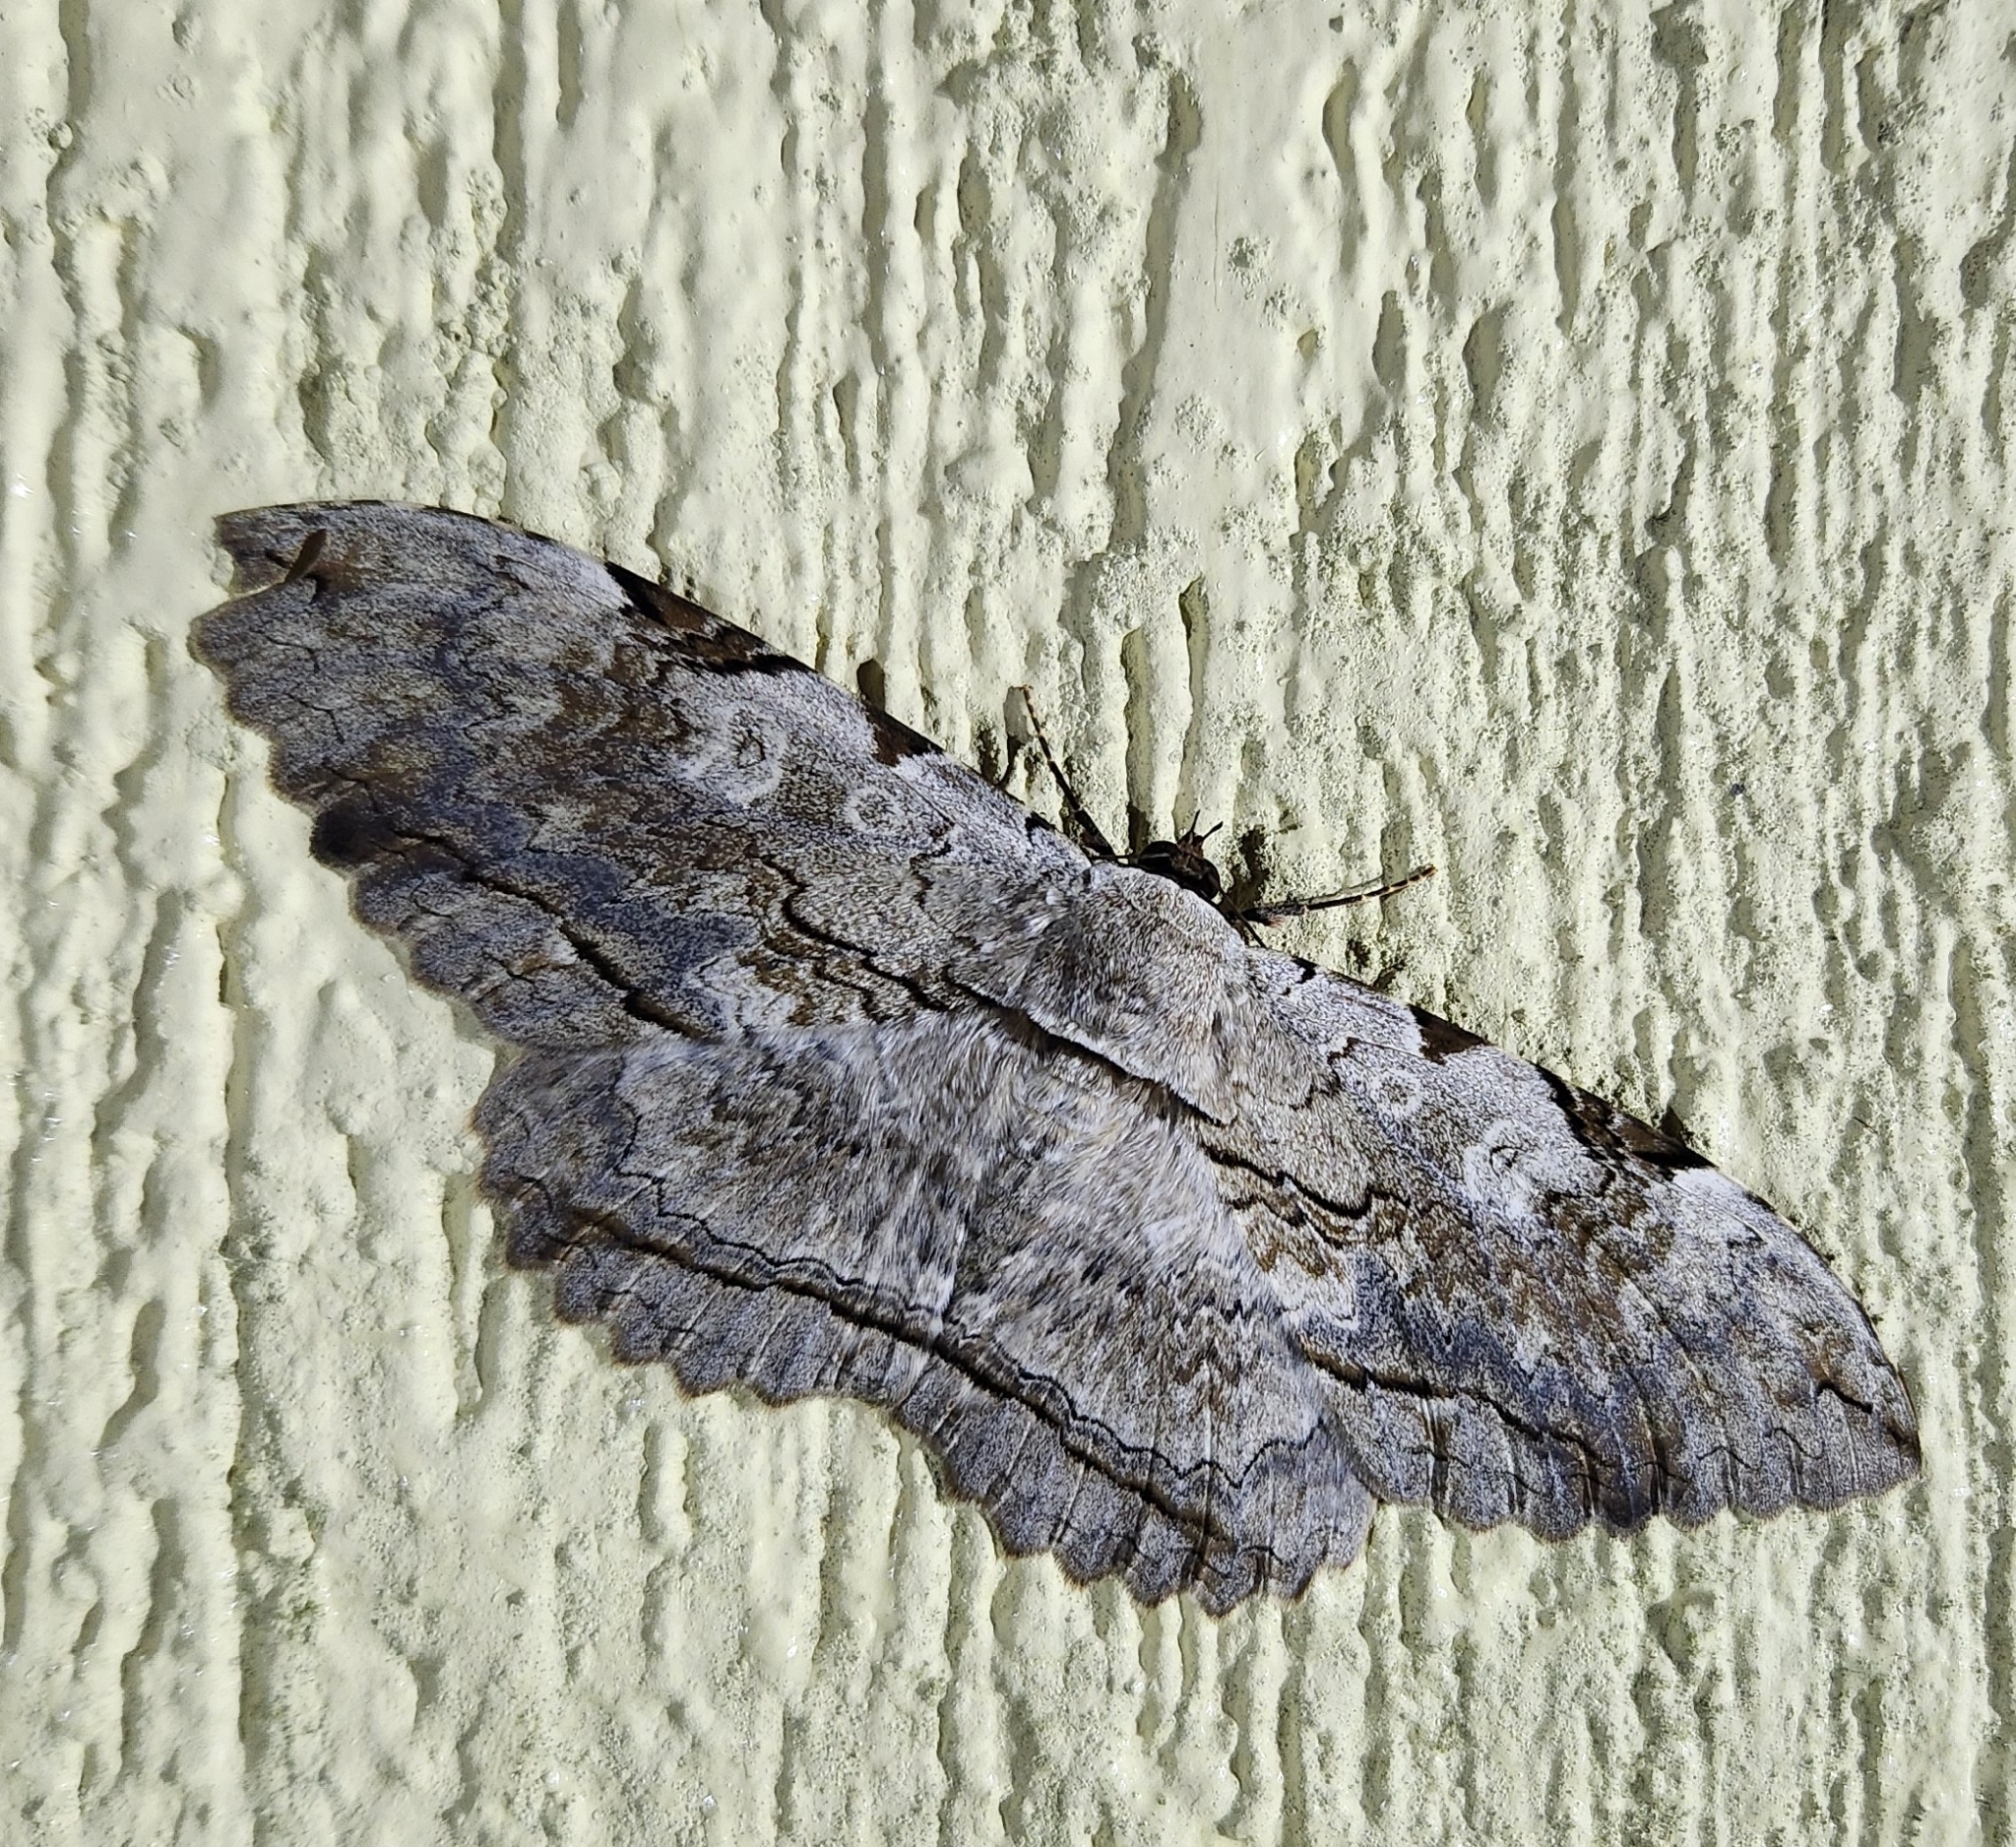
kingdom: Animalia
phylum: Arthropoda
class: Insecta
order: Lepidoptera
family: Erebidae
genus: Thysania
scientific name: Thysania zenobia
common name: Owl moth
